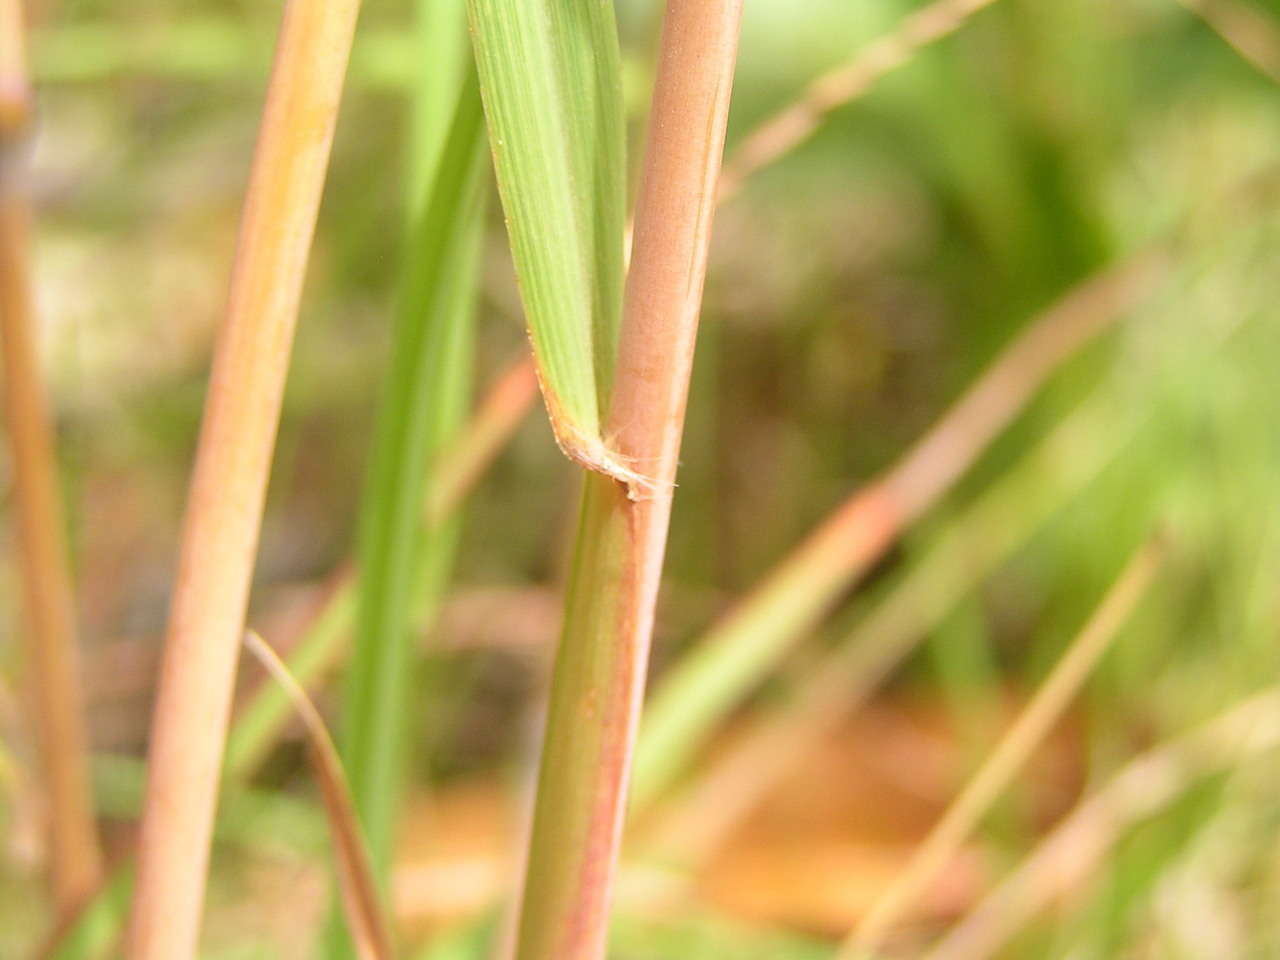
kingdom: Plantae
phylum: Tracheophyta
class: Liliopsida
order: Poales
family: Poaceae
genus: Themeda
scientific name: Themeda triandra
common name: Kangaroo grass
